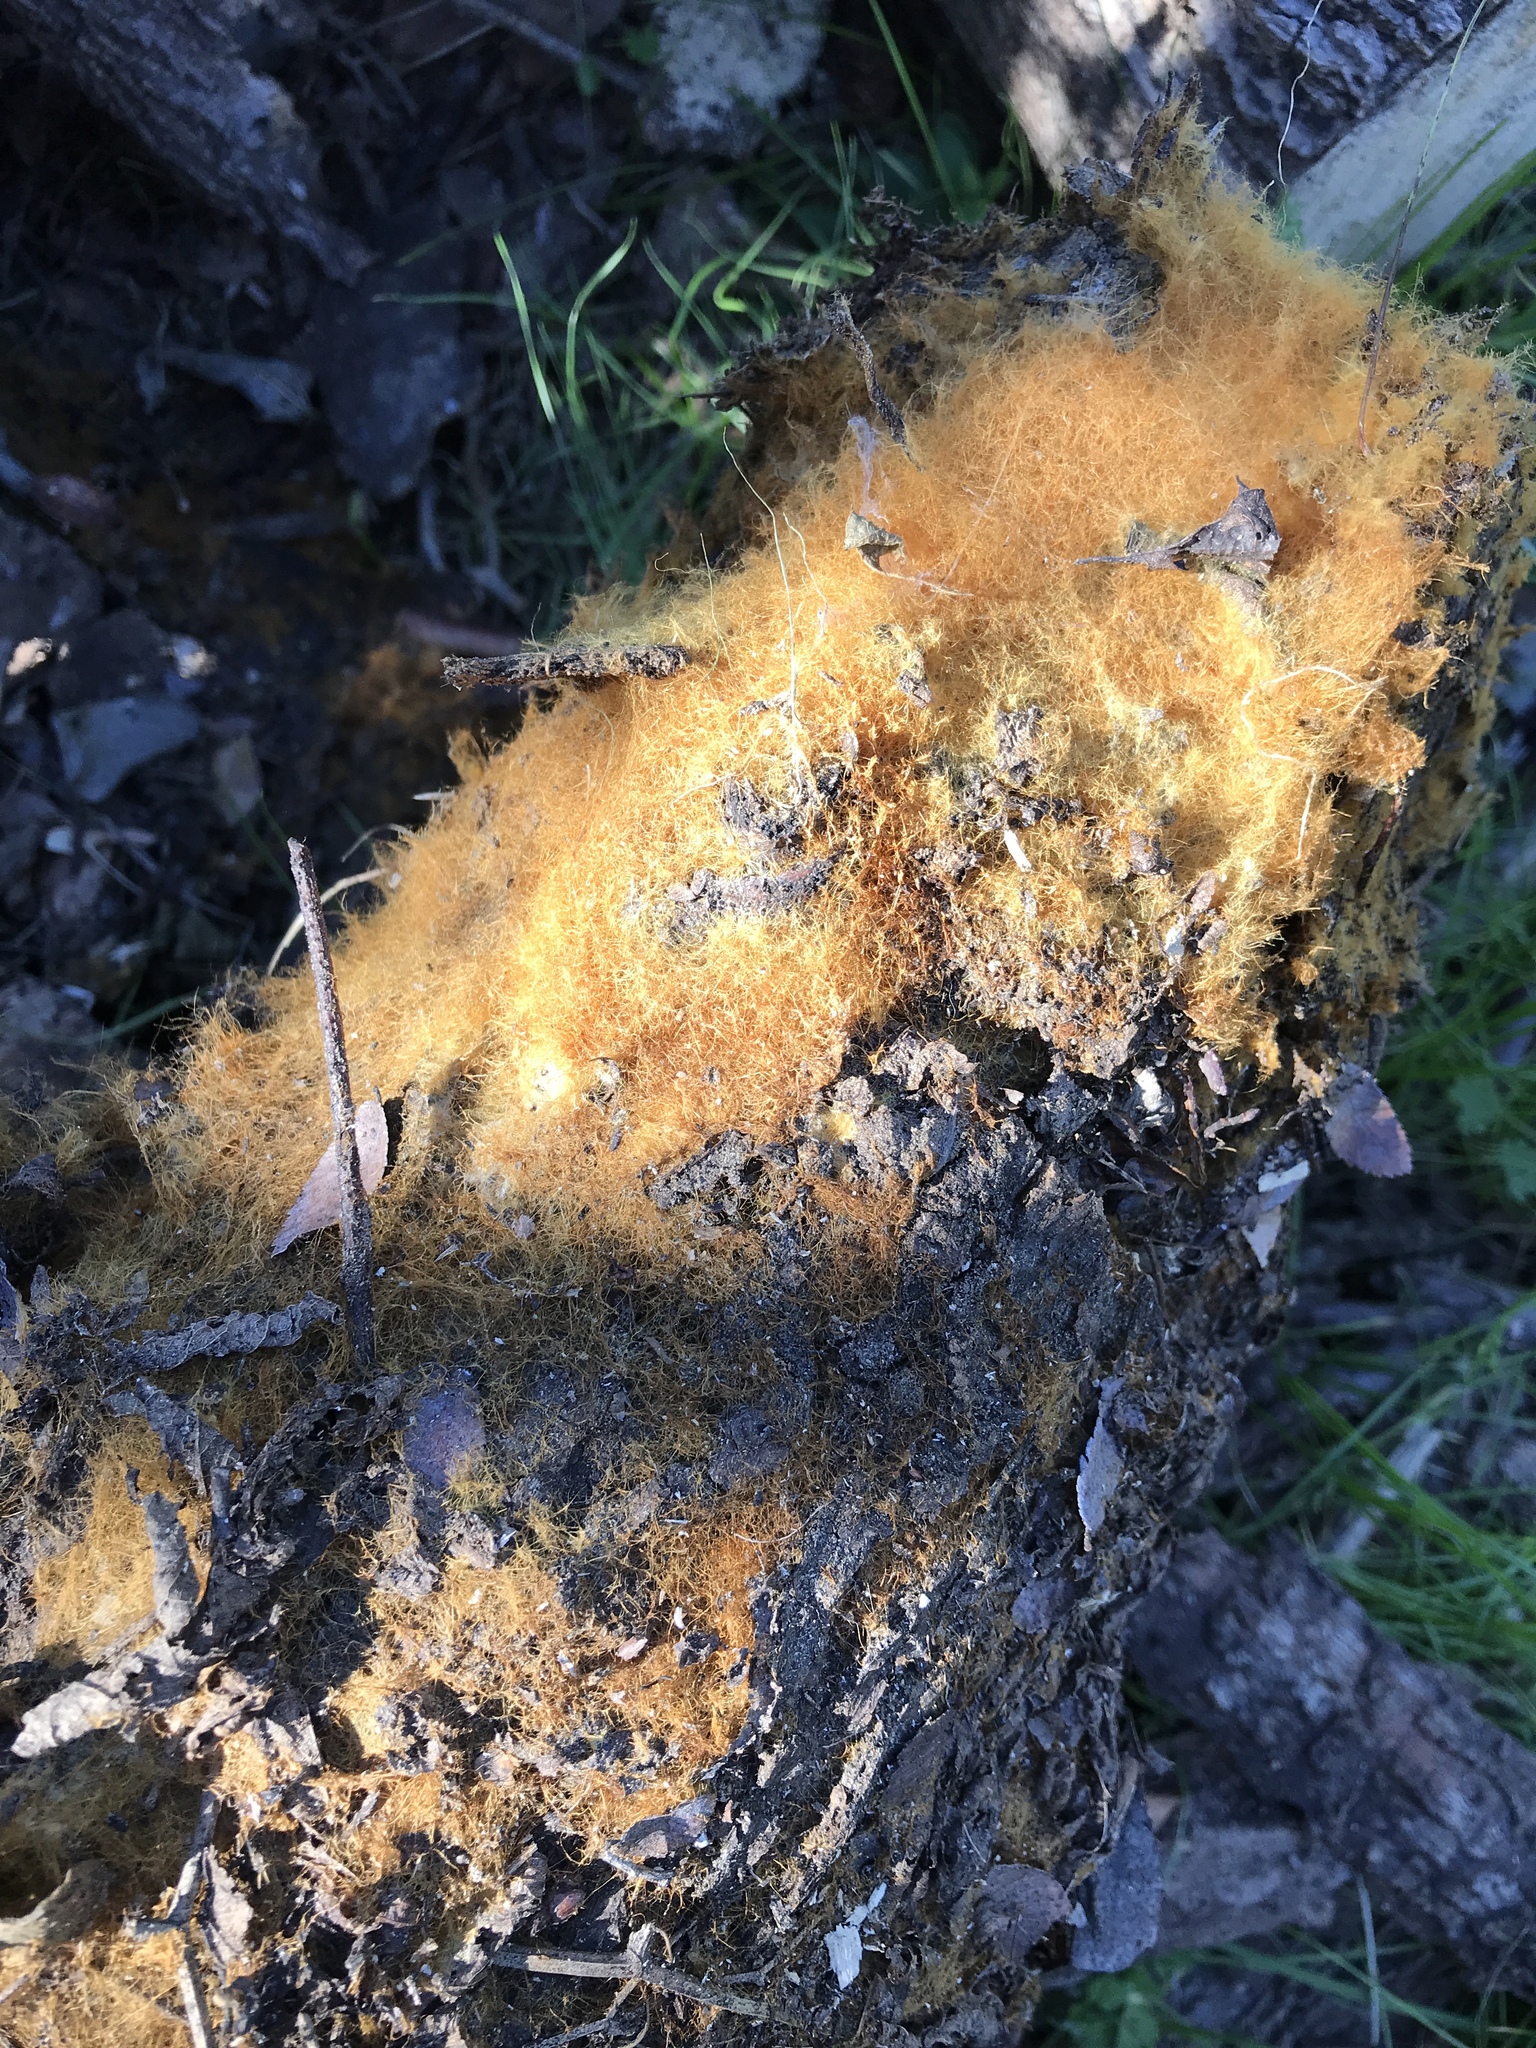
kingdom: Fungi
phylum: Basidiomycota
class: Agaricomycetes
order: Agaricales
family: Psathyrellaceae
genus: Coprinellus
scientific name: Coprinellus domesticus
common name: Firerug inkcap
